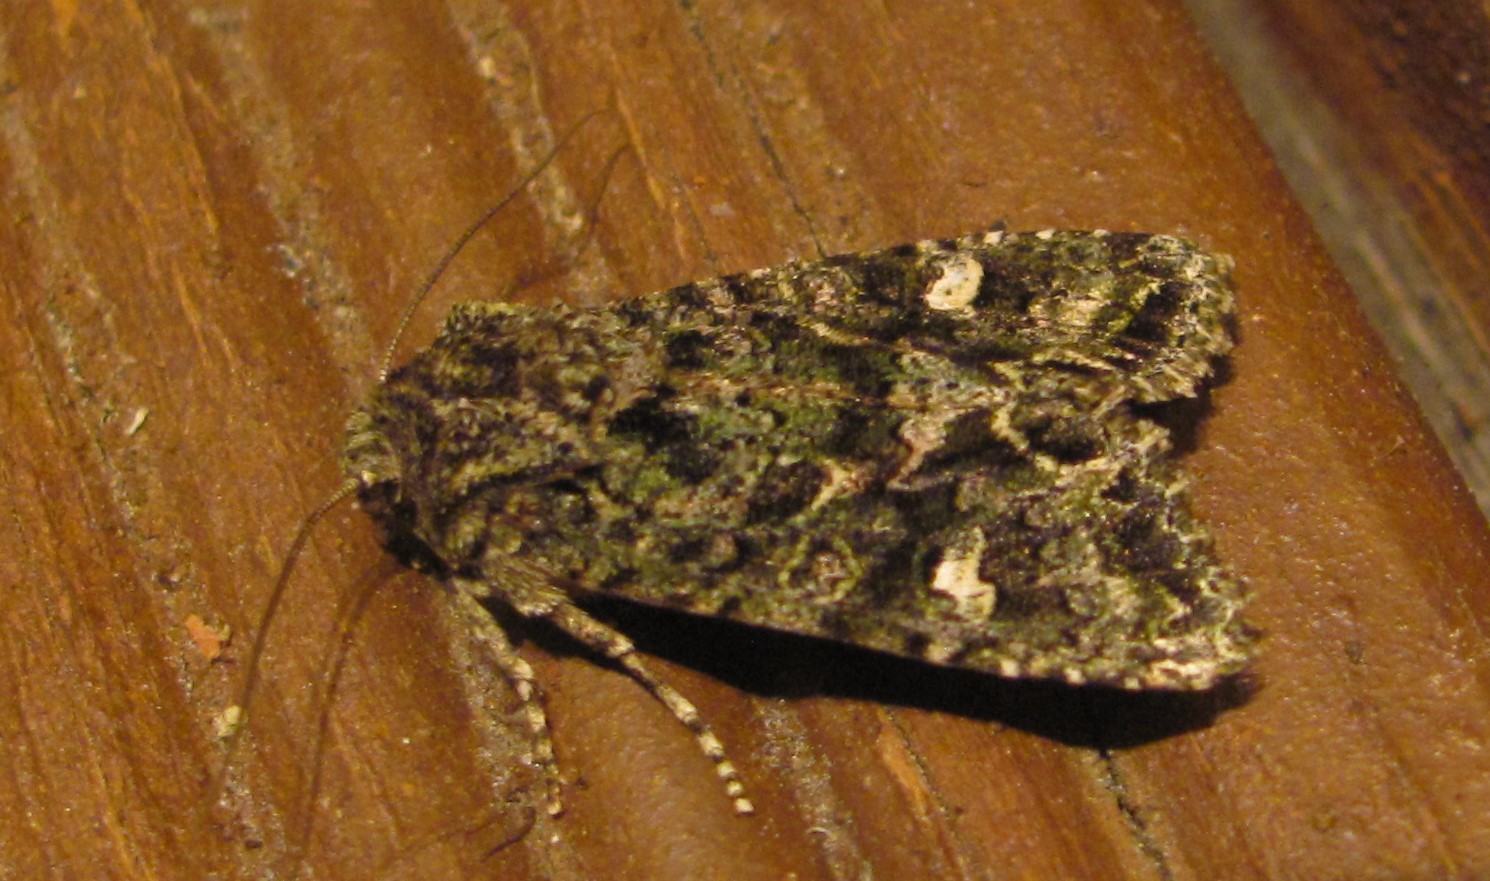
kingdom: Animalia
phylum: Arthropoda
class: Insecta
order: Lepidoptera
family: Noctuidae
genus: Ichneutica
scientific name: Ichneutica
